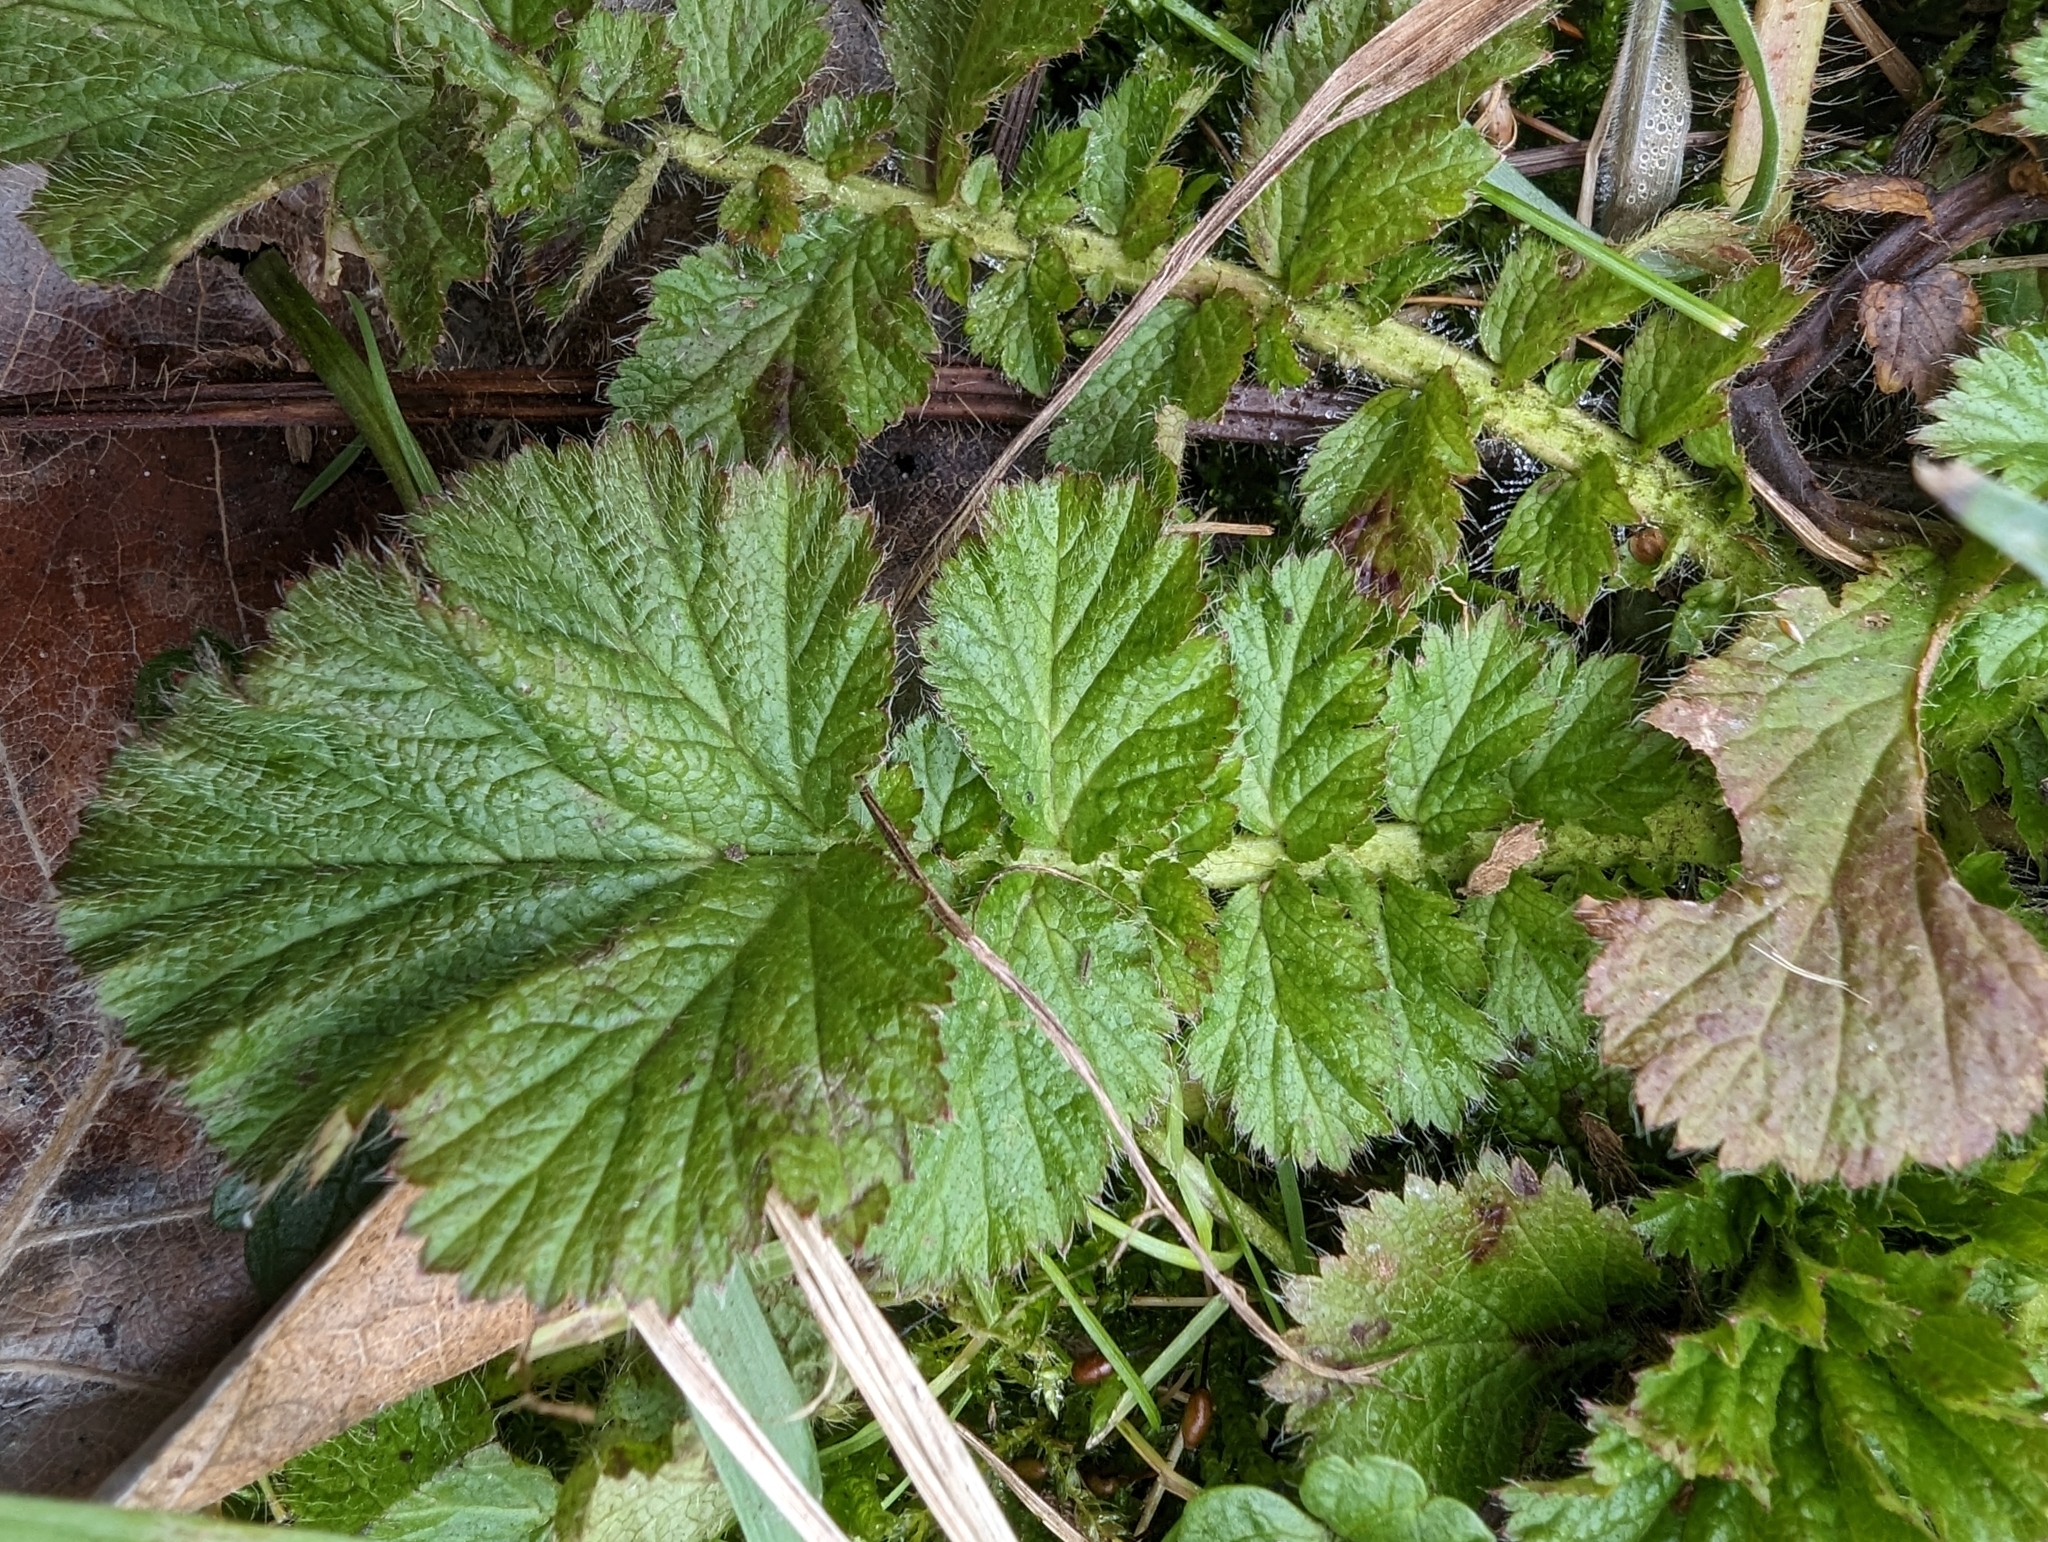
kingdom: Plantae
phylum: Tracheophyta
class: Magnoliopsida
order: Rosales
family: Rosaceae
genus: Geum
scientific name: Geum macrophyllum
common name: Large-leaved avens
